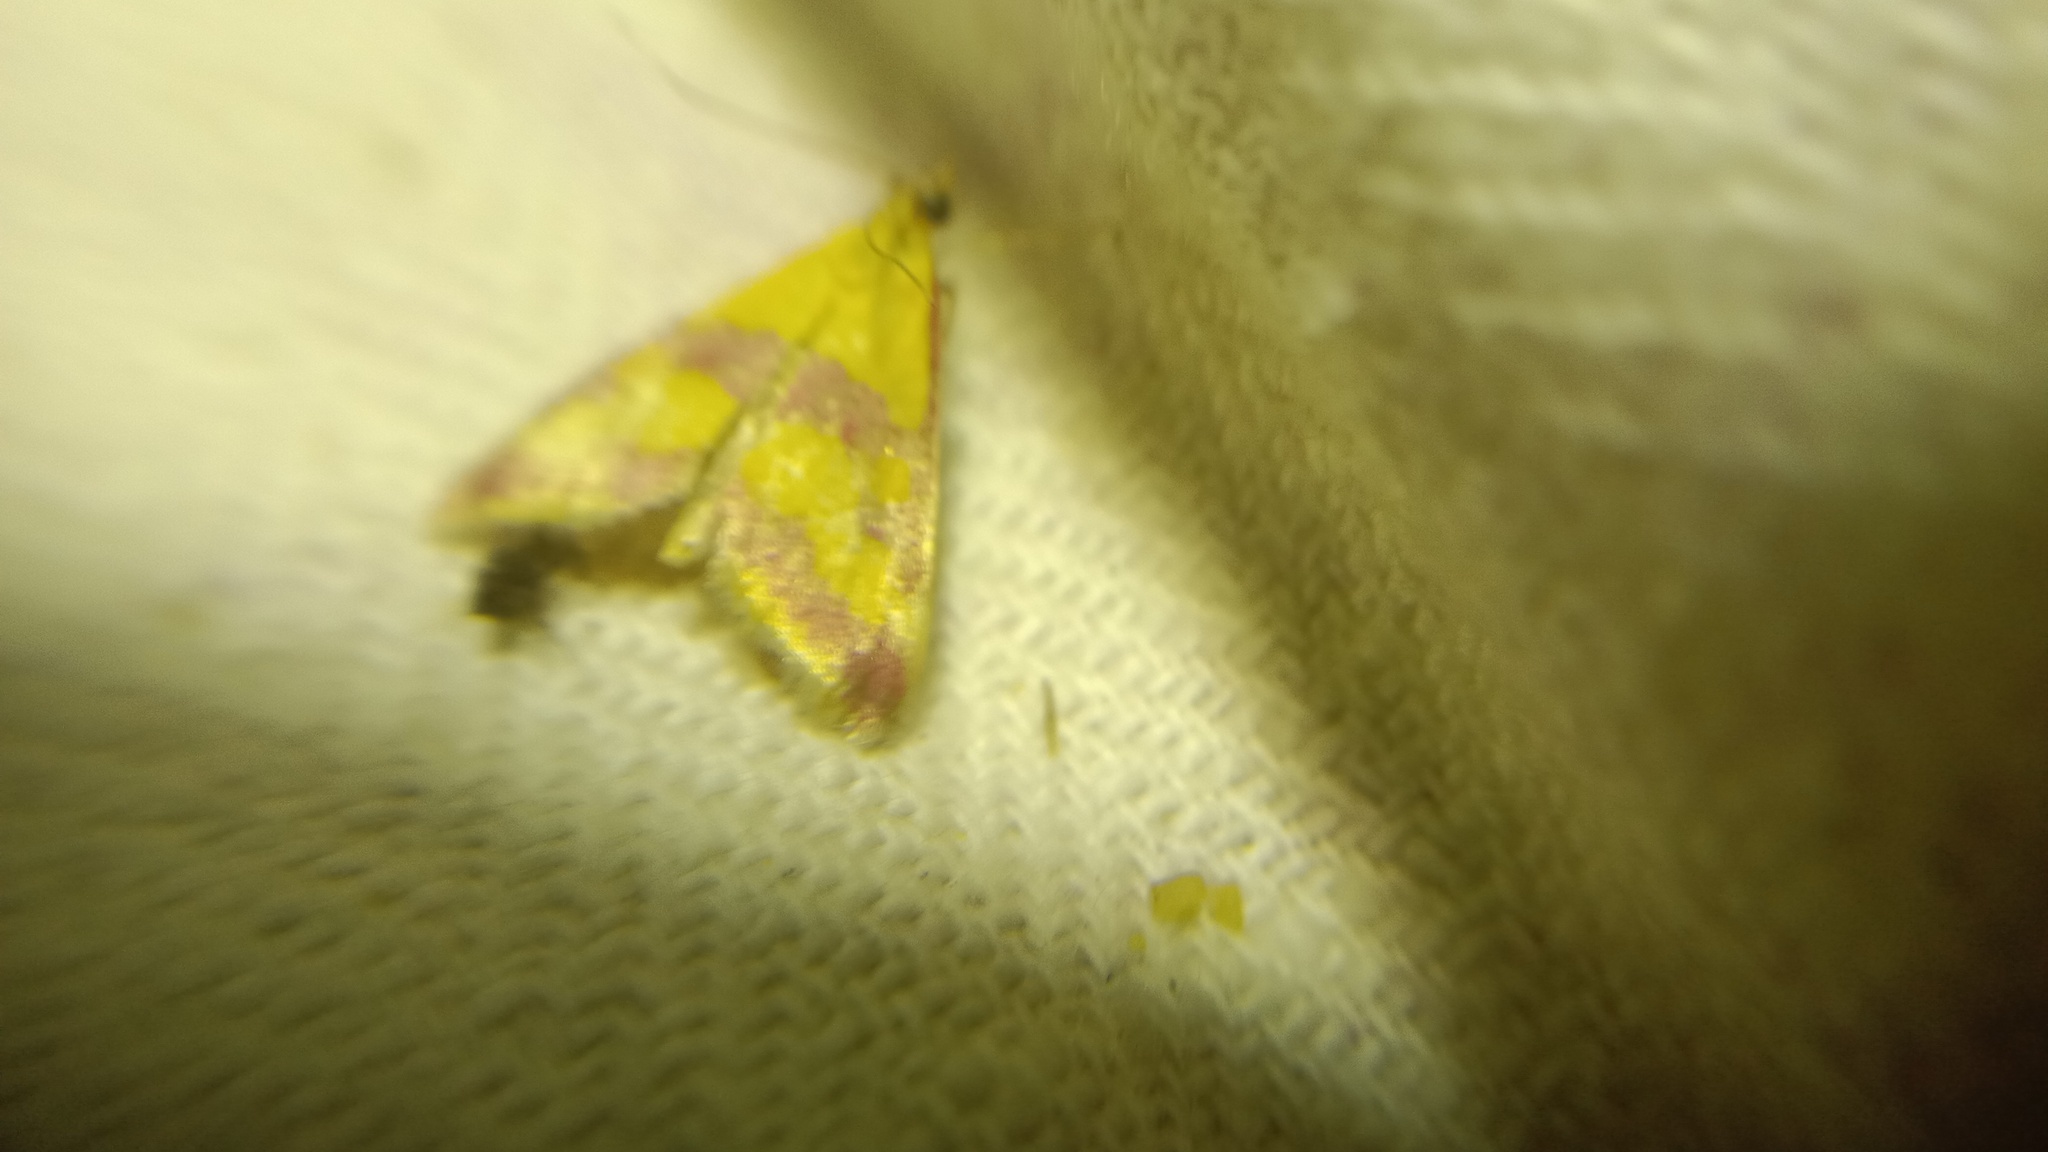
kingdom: Animalia
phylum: Arthropoda
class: Insecta
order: Lepidoptera
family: Crambidae
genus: Pyrausta
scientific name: Pyrausta sanguinalis
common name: Scarce crimson and gold
